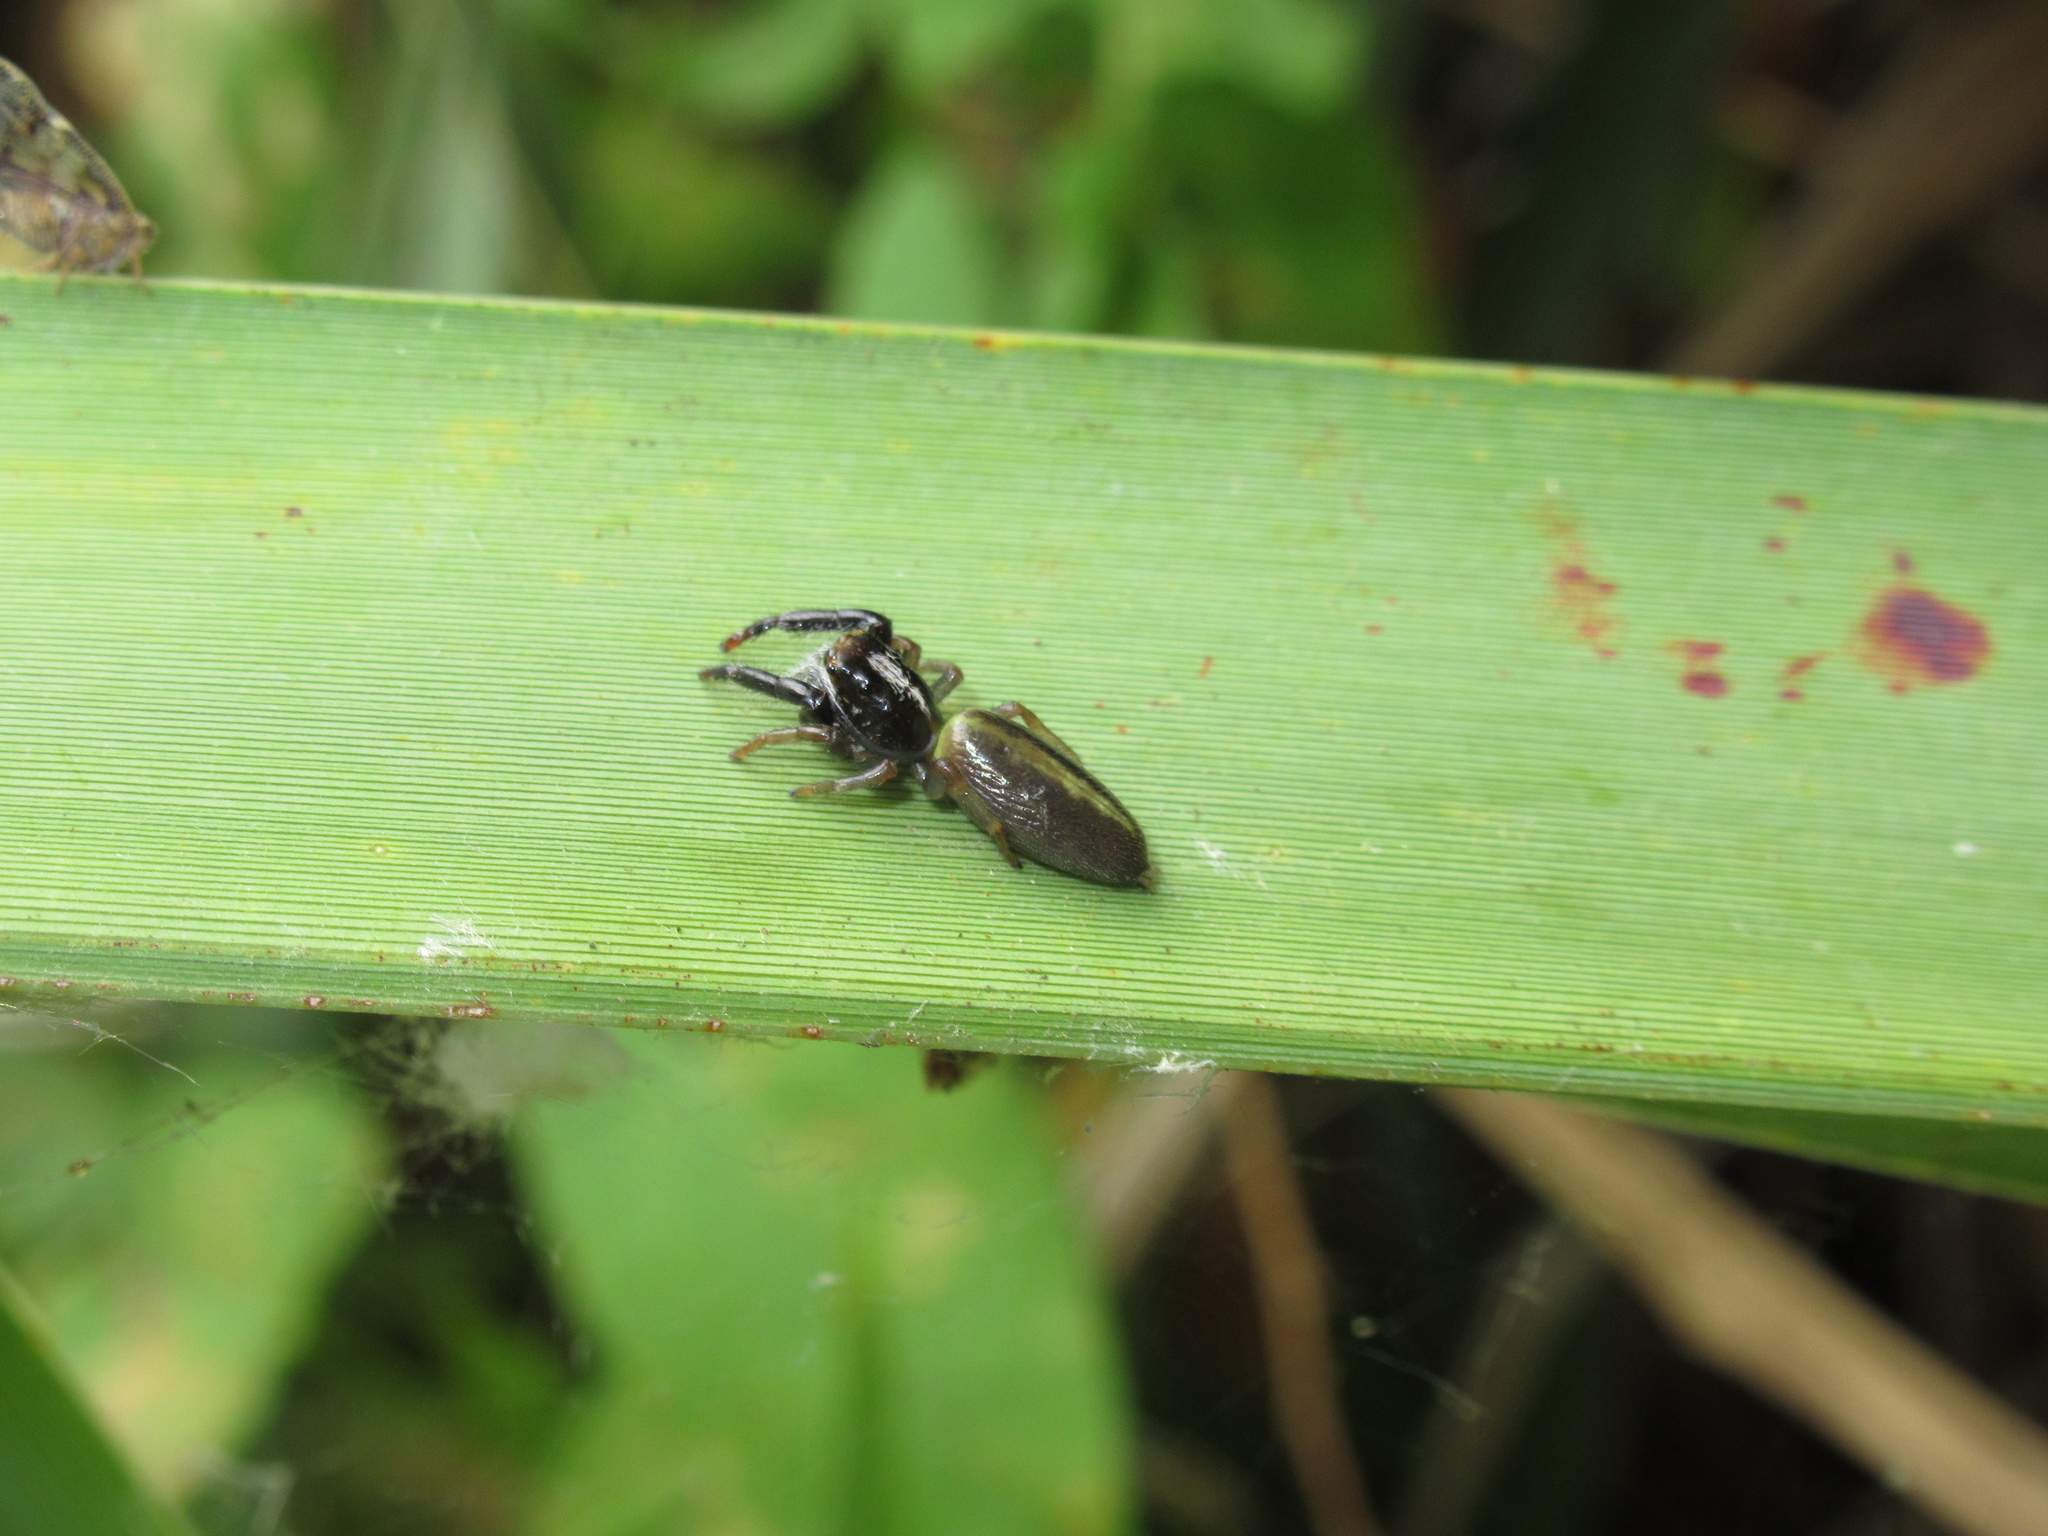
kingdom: Animalia
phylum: Arthropoda
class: Arachnida
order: Araneae
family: Salticidae
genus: Trite
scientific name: Trite planiceps
